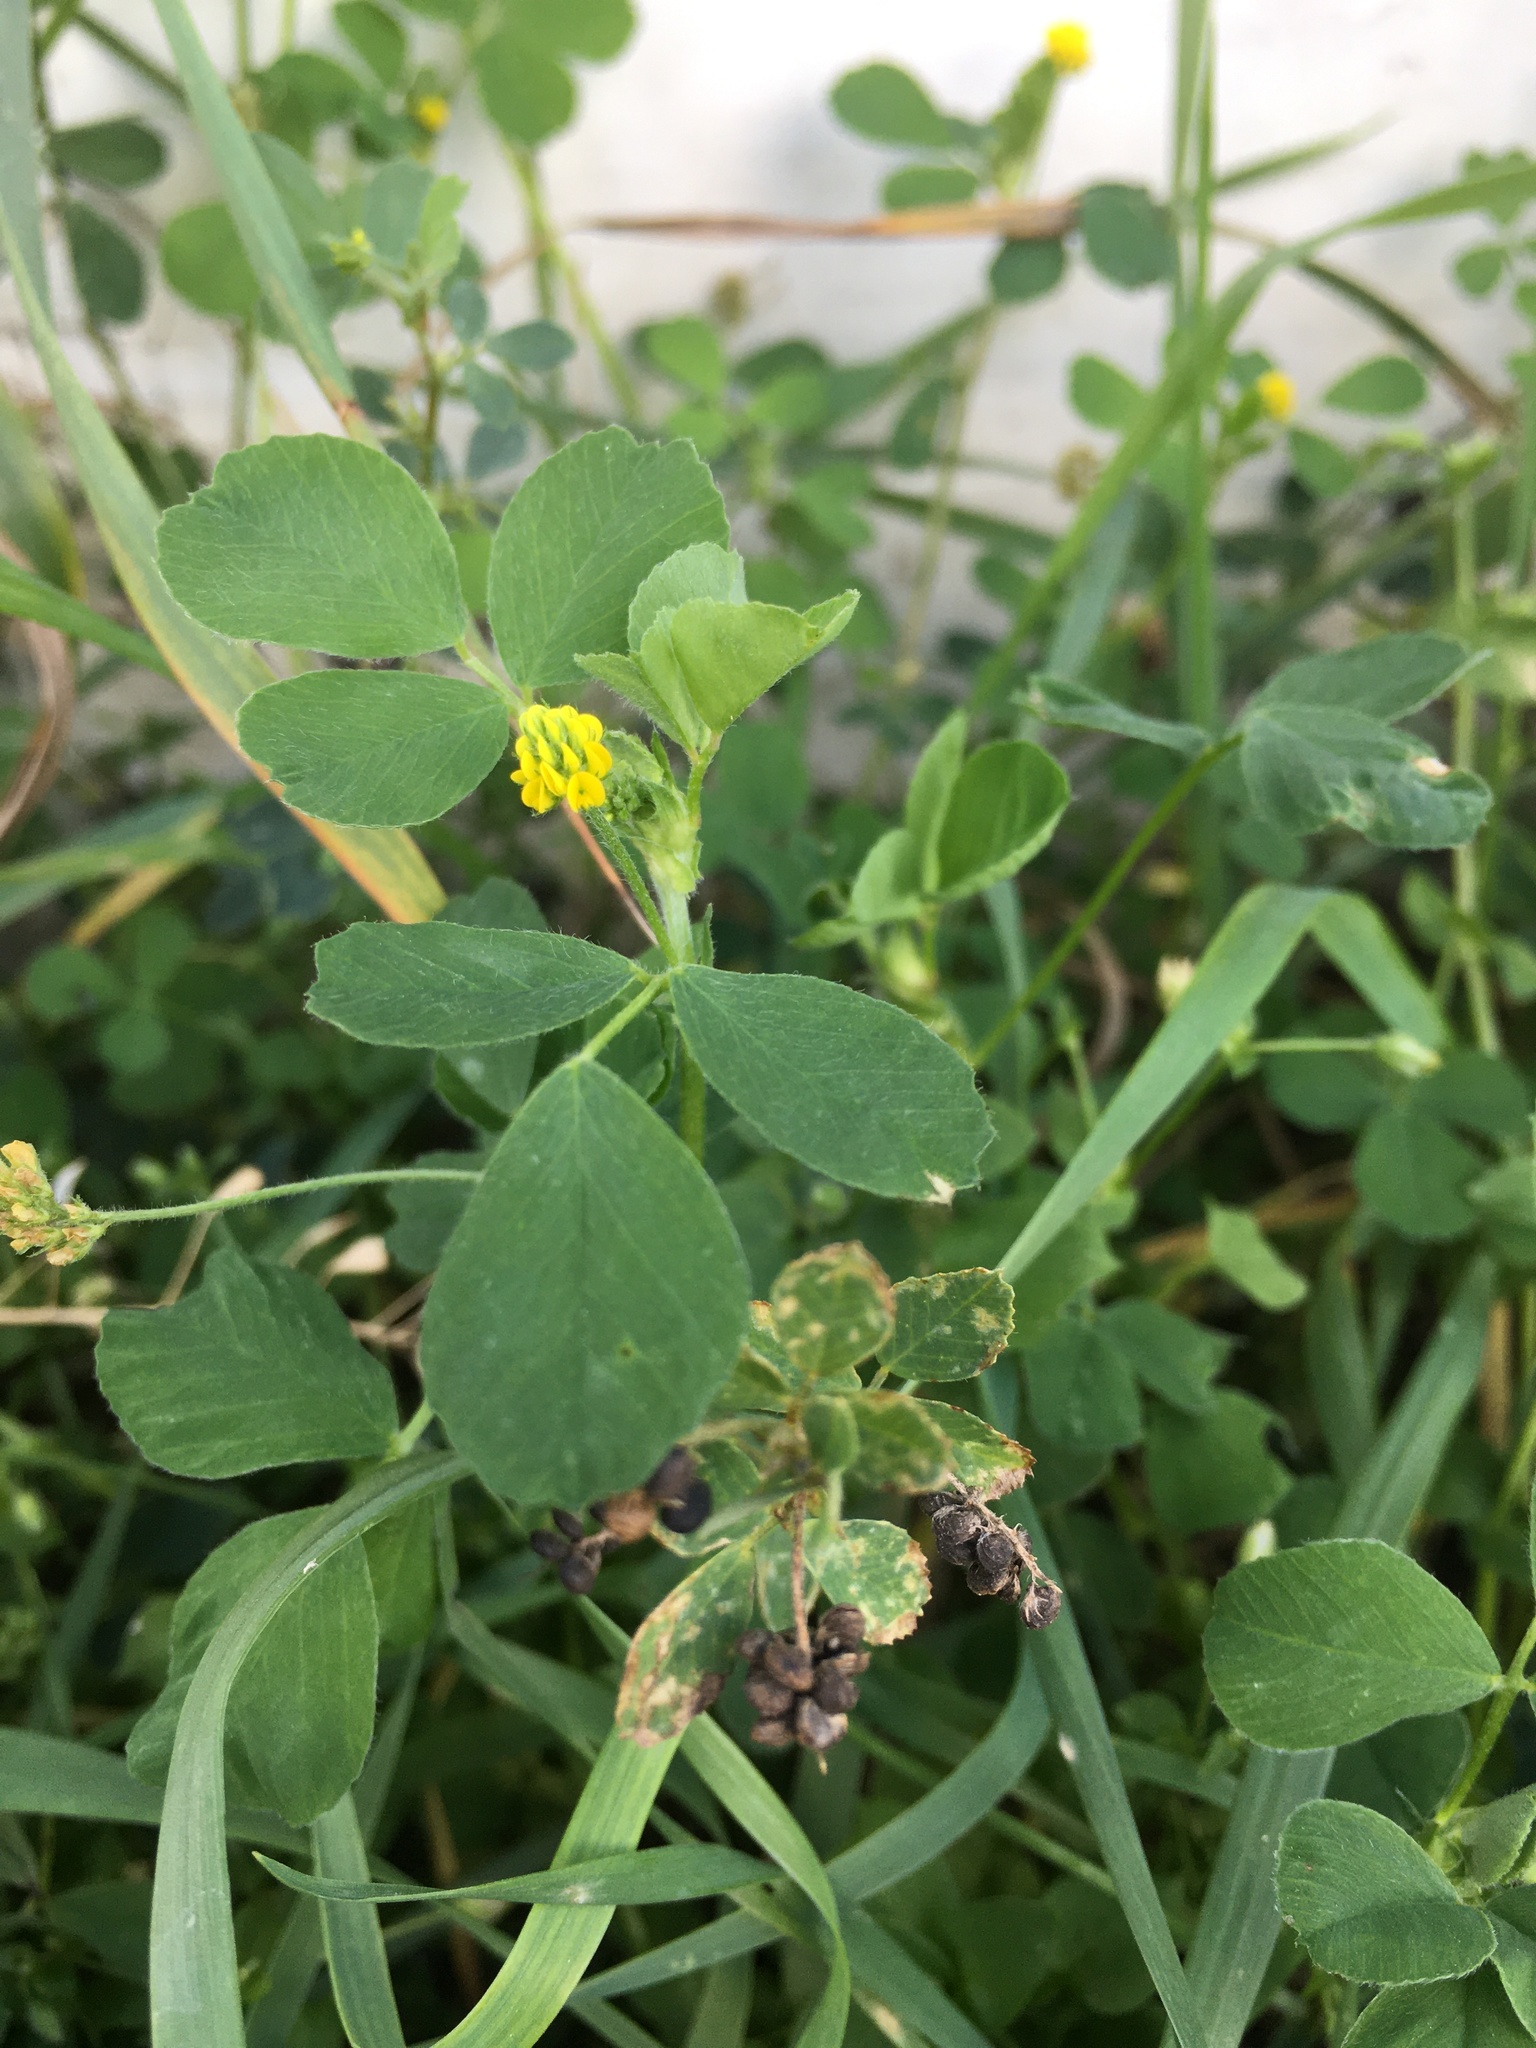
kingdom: Plantae
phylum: Tracheophyta
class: Magnoliopsida
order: Fabales
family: Fabaceae
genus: Medicago
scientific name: Medicago lupulina
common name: Black medick
